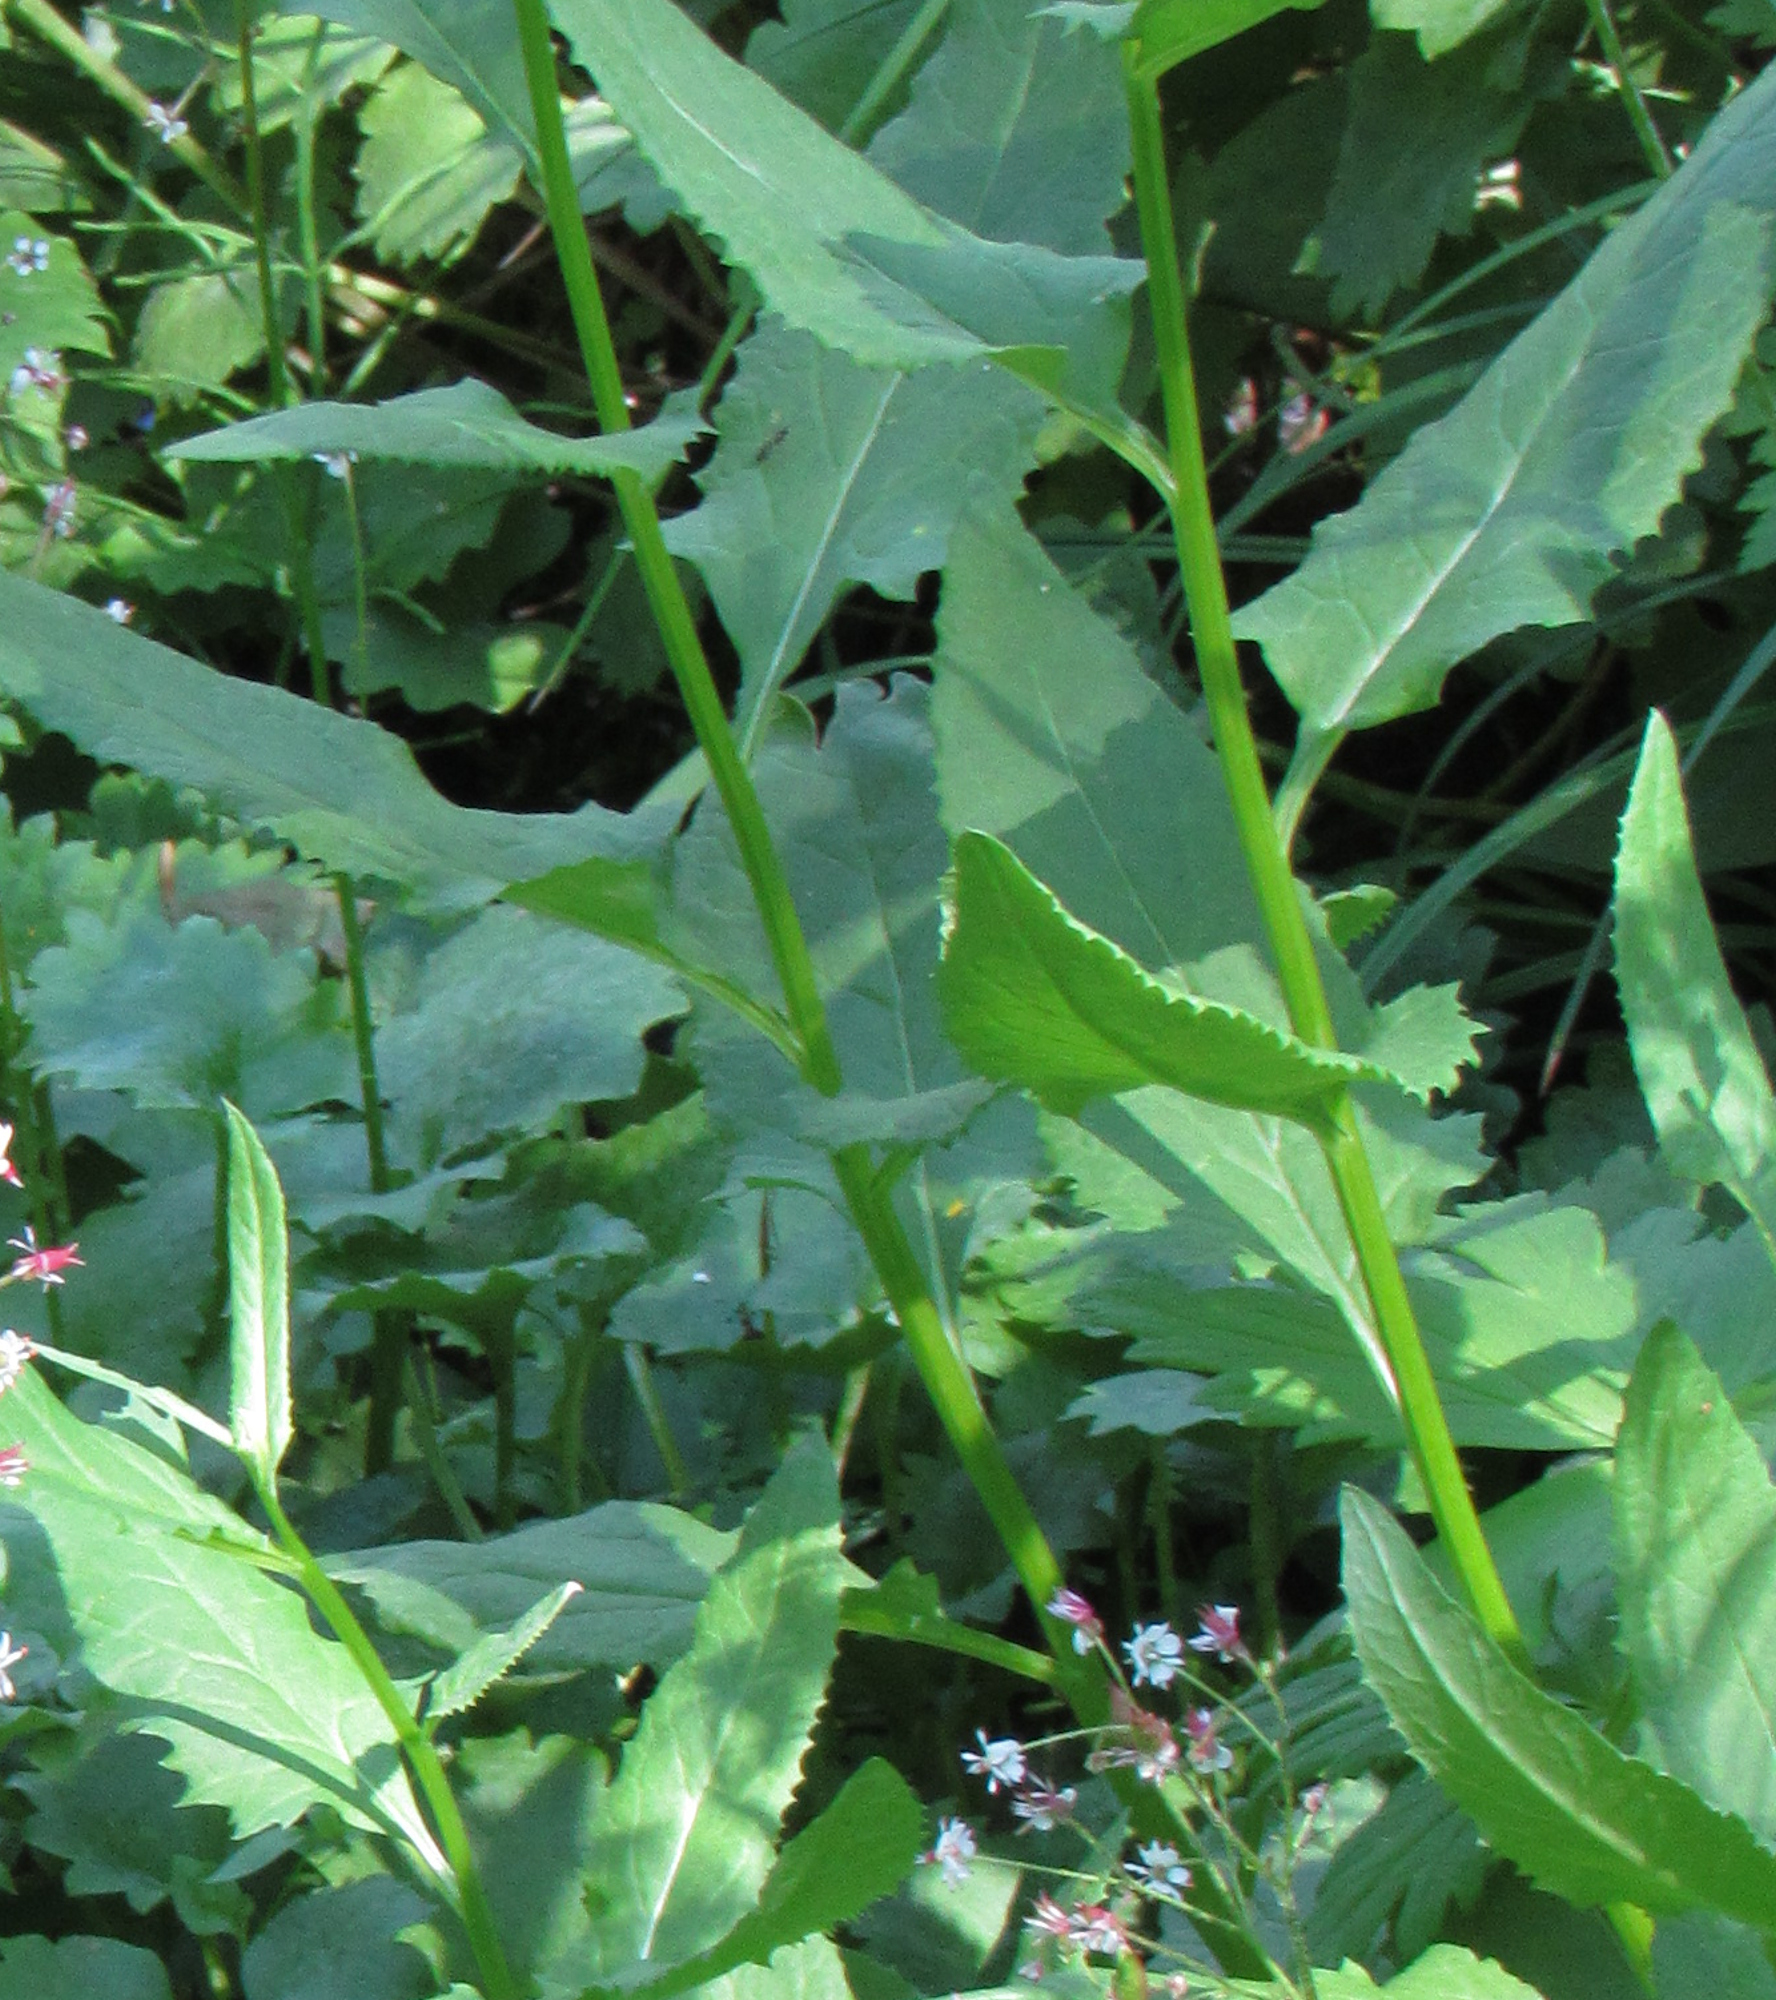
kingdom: Plantae
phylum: Tracheophyta
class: Magnoliopsida
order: Asterales
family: Asteraceae
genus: Senecio
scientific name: Senecio triangularis
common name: Arrowleaf butterweed
